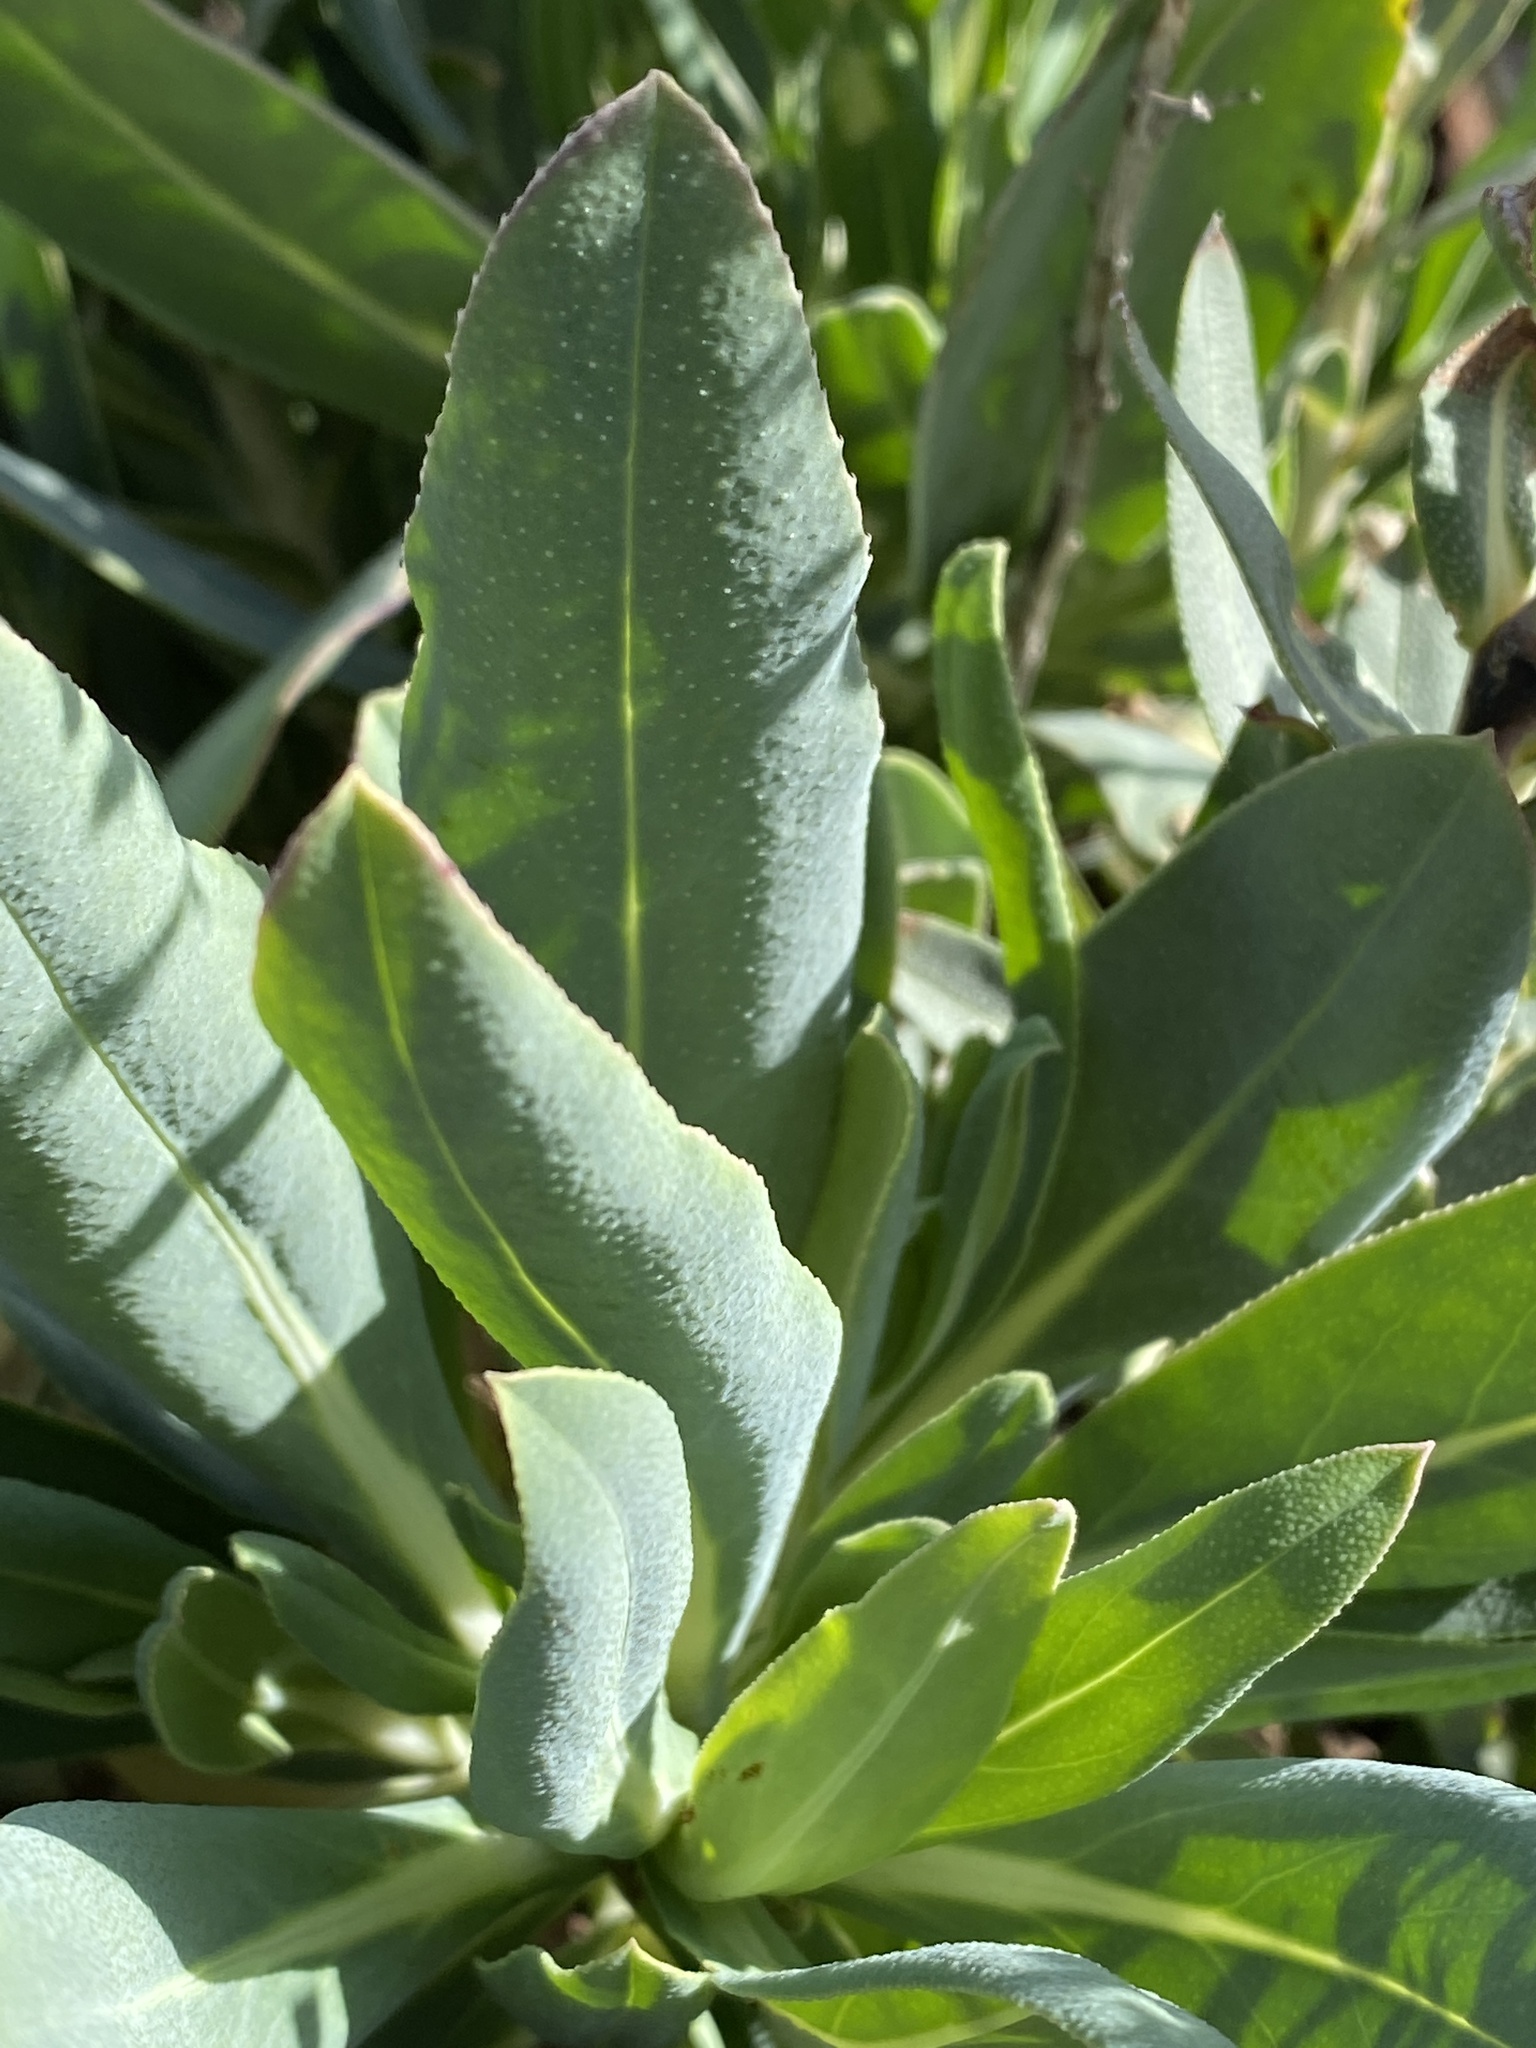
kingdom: Plantae
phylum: Tracheophyta
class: Magnoliopsida
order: Boraginales
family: Boraginaceae
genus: Echium
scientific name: Echium thyrsiflorum
